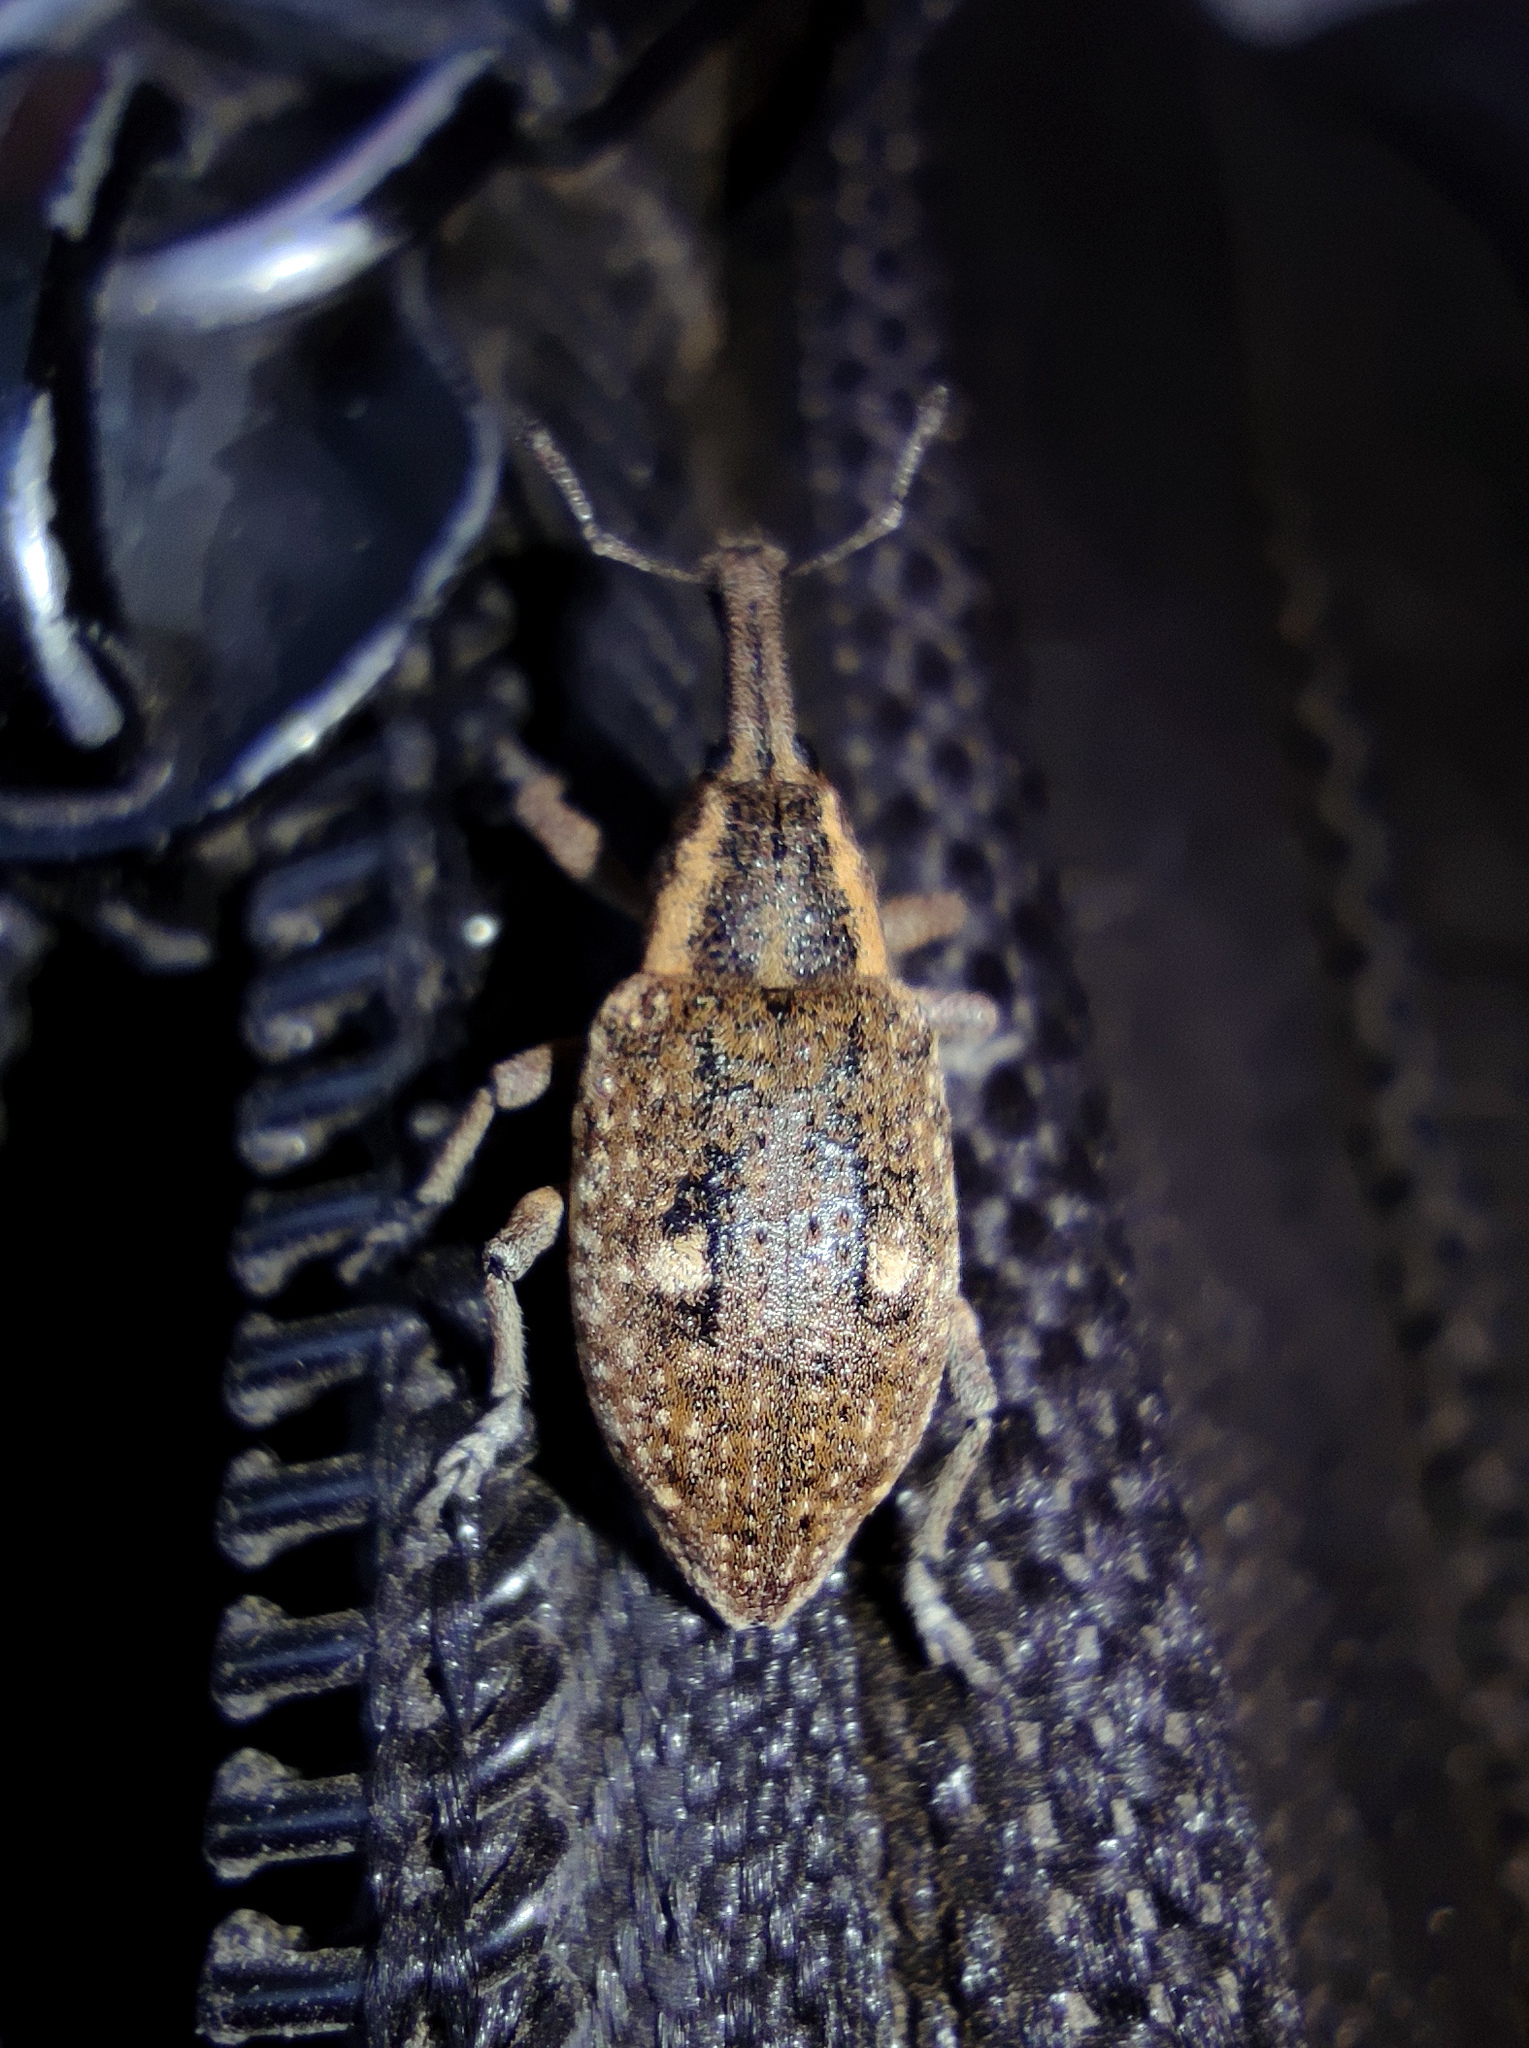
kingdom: Animalia
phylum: Arthropoda
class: Insecta
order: Coleoptera
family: Curculionidae
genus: Lepyrus
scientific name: Lepyrus palustris
